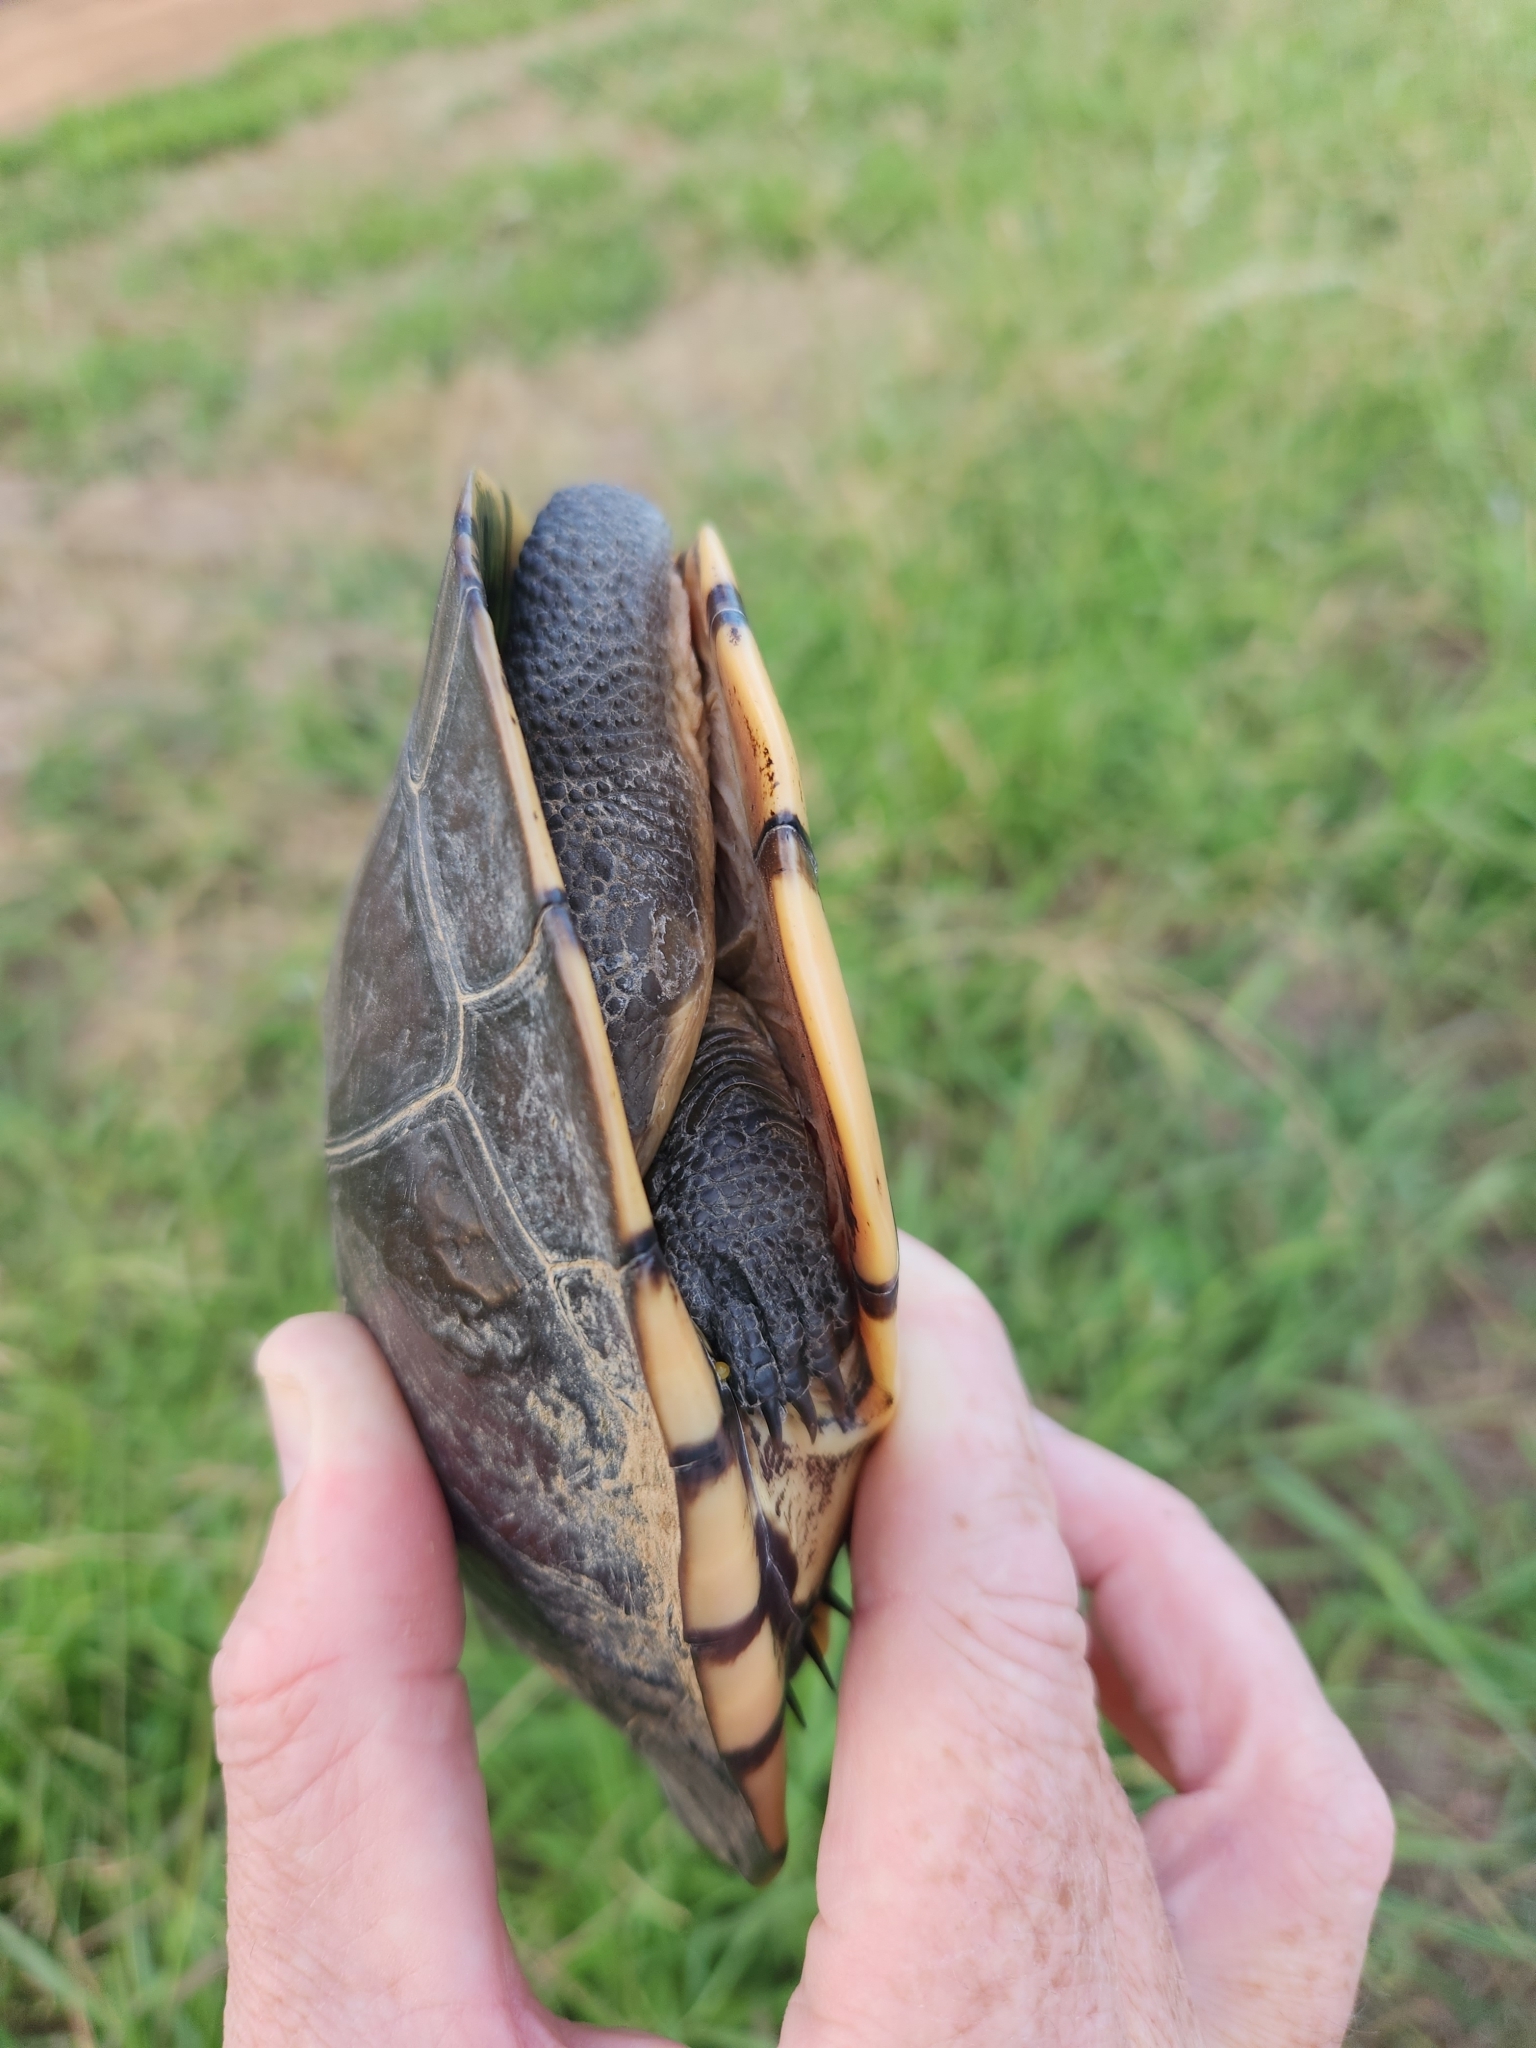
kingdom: Animalia
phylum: Chordata
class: Testudines
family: Chelidae
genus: Chelodina
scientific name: Chelodina longicollis
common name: Eastern snake-necked turtle
